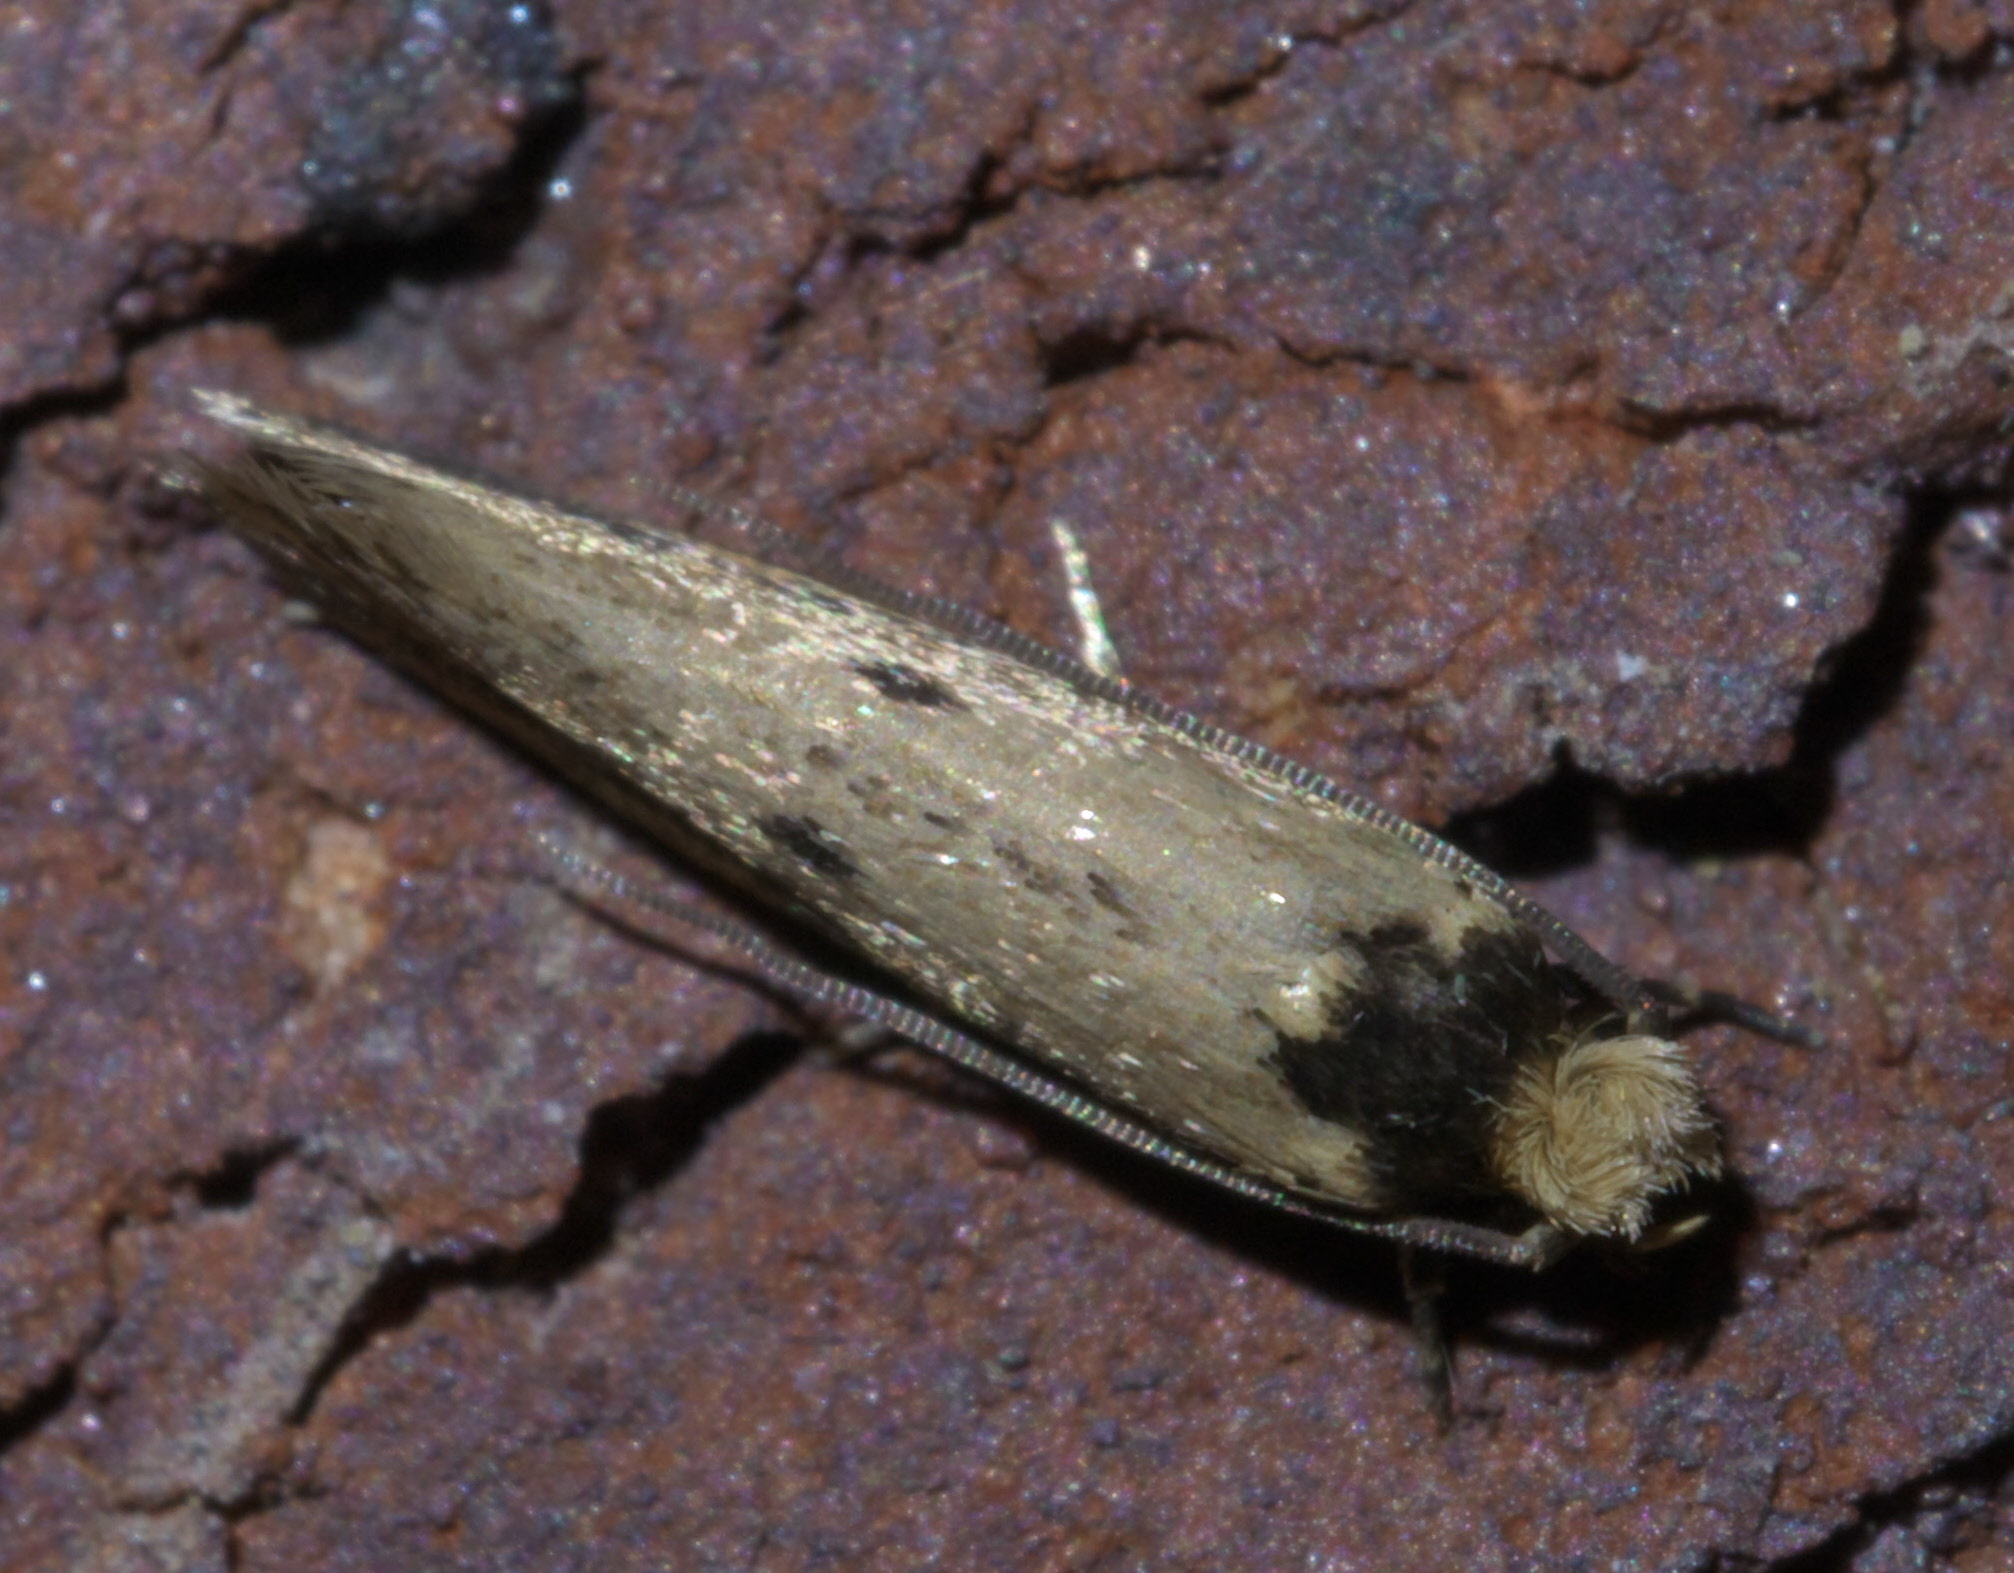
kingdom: Animalia
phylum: Arthropoda
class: Insecta
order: Lepidoptera
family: Tineidae
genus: Tinea
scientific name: Tinea apicimaculella
